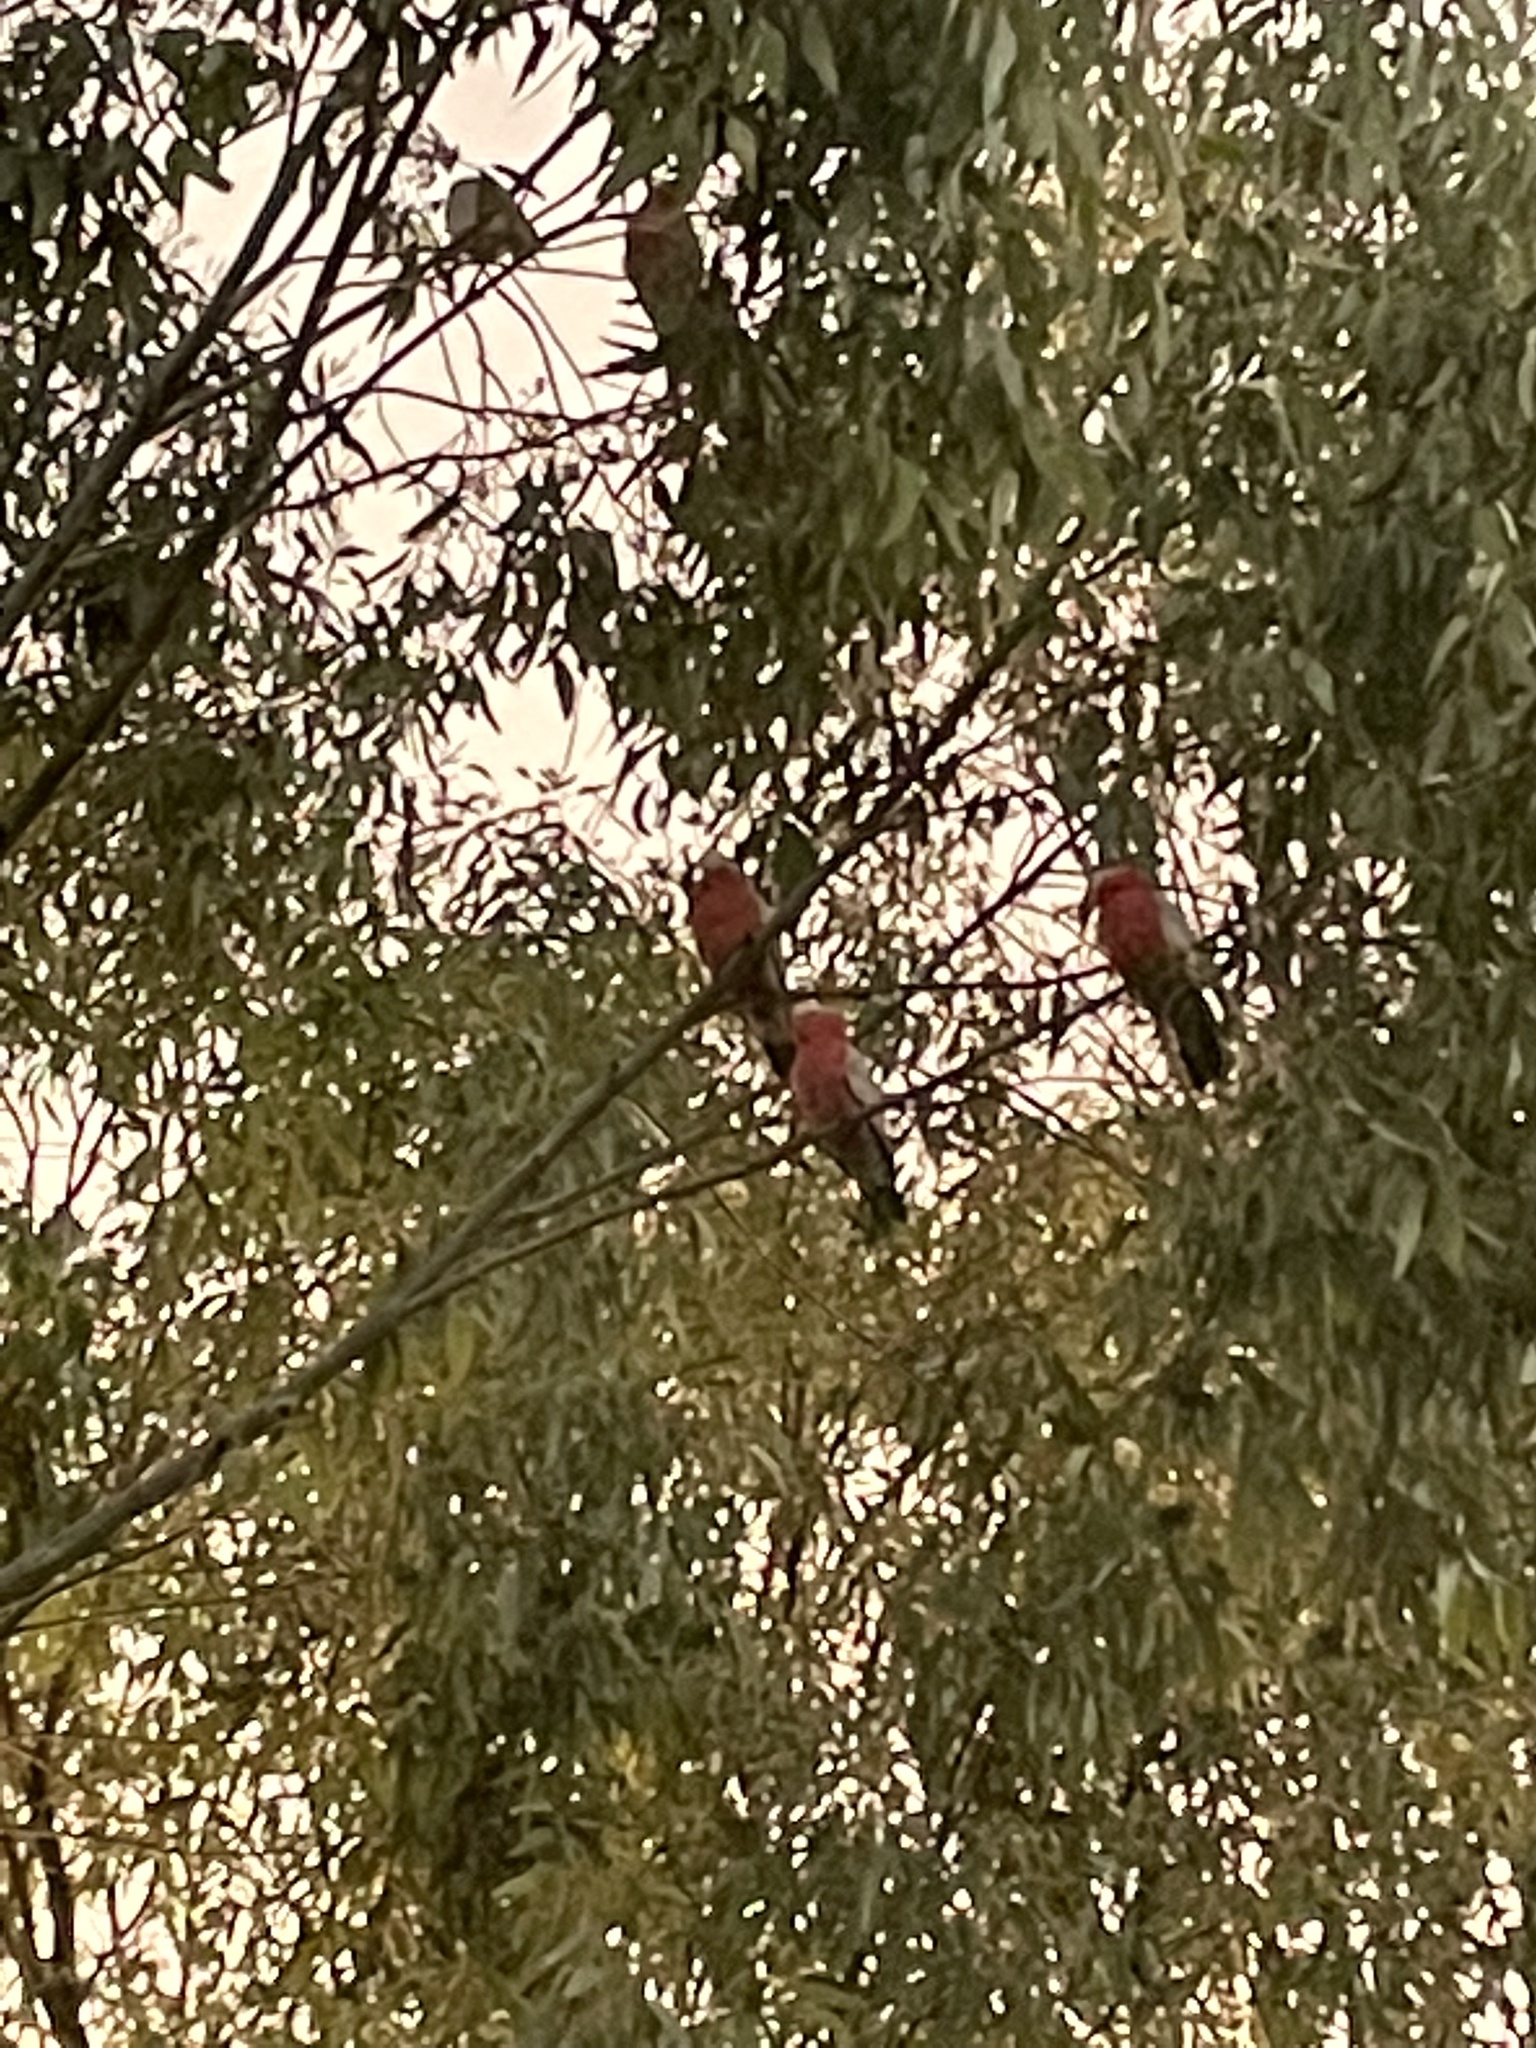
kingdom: Animalia
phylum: Chordata
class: Aves
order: Psittaciformes
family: Psittacidae
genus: Eolophus
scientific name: Eolophus roseicapilla
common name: Galah
